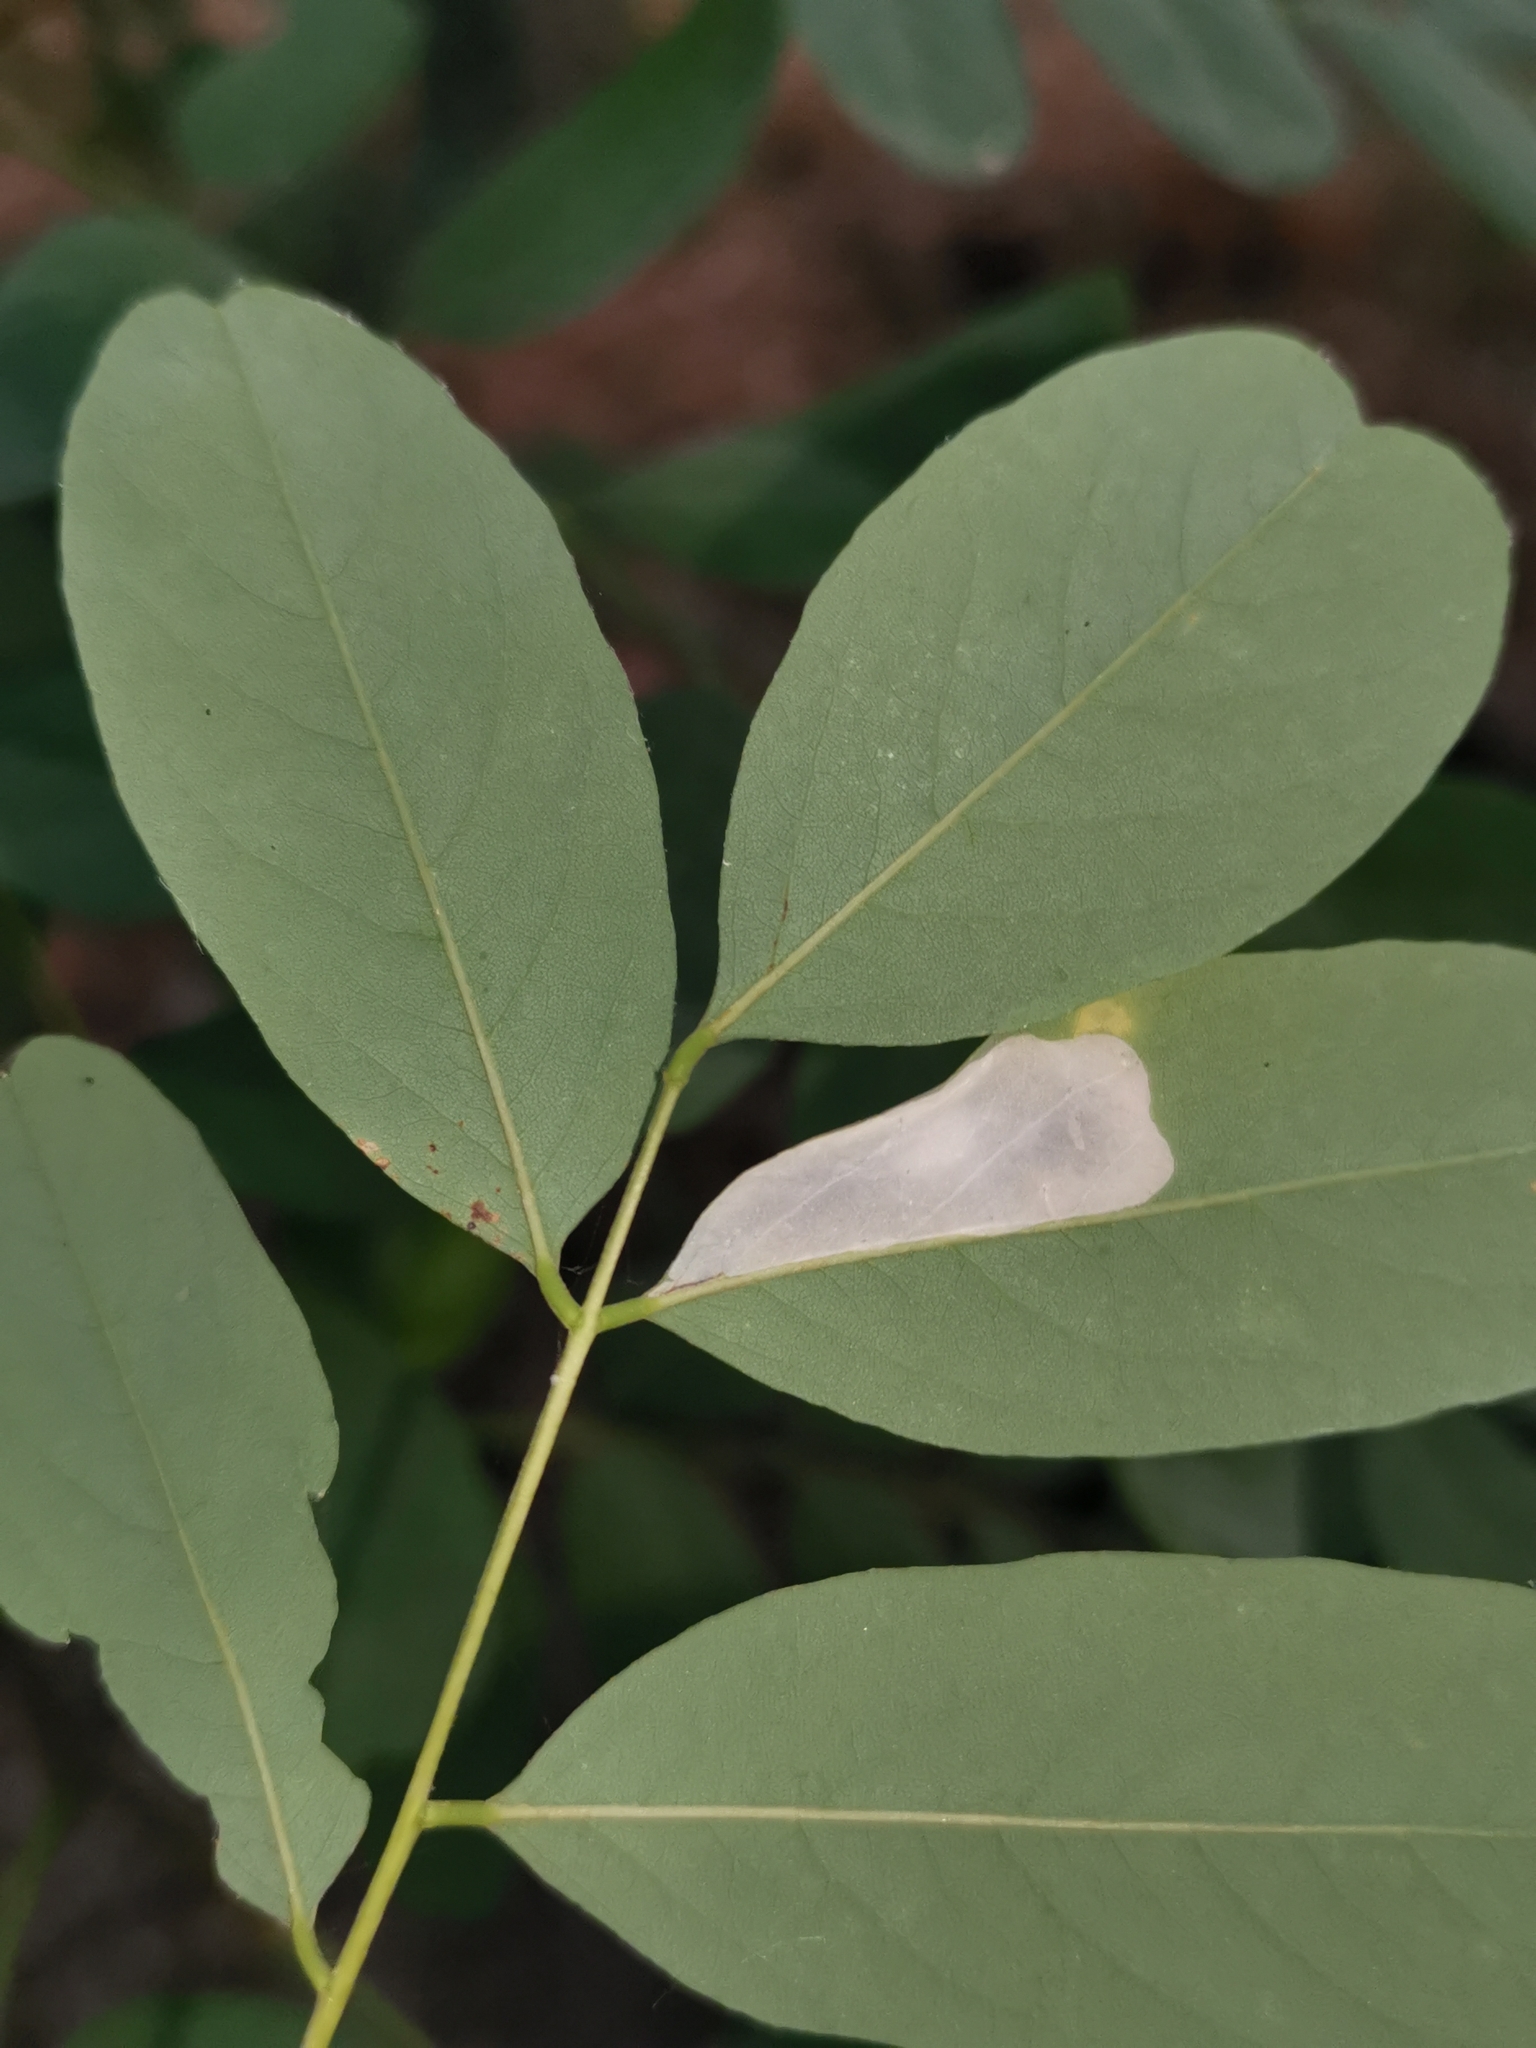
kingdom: Animalia
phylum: Arthropoda
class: Insecta
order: Lepidoptera
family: Gracillariidae
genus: Macrosaccus
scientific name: Macrosaccus robiniella
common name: Leaf blotch miner moth
